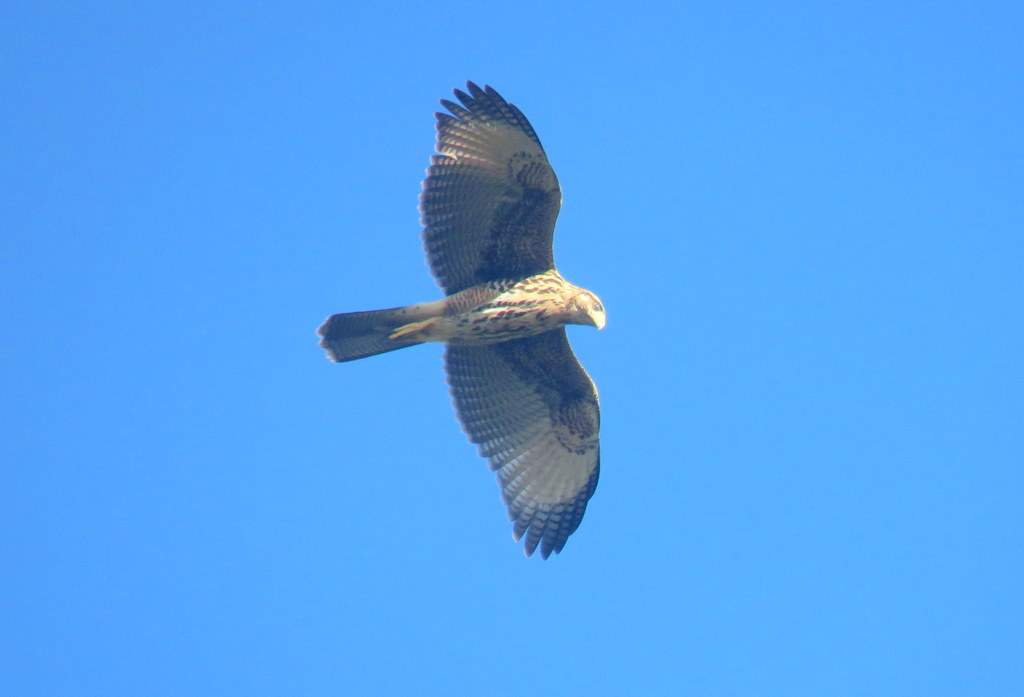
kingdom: Animalia
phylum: Chordata
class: Aves
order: Accipitriformes
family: Accipitridae
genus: Parabuteo
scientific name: Parabuteo unicinctus
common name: Harris's hawk
